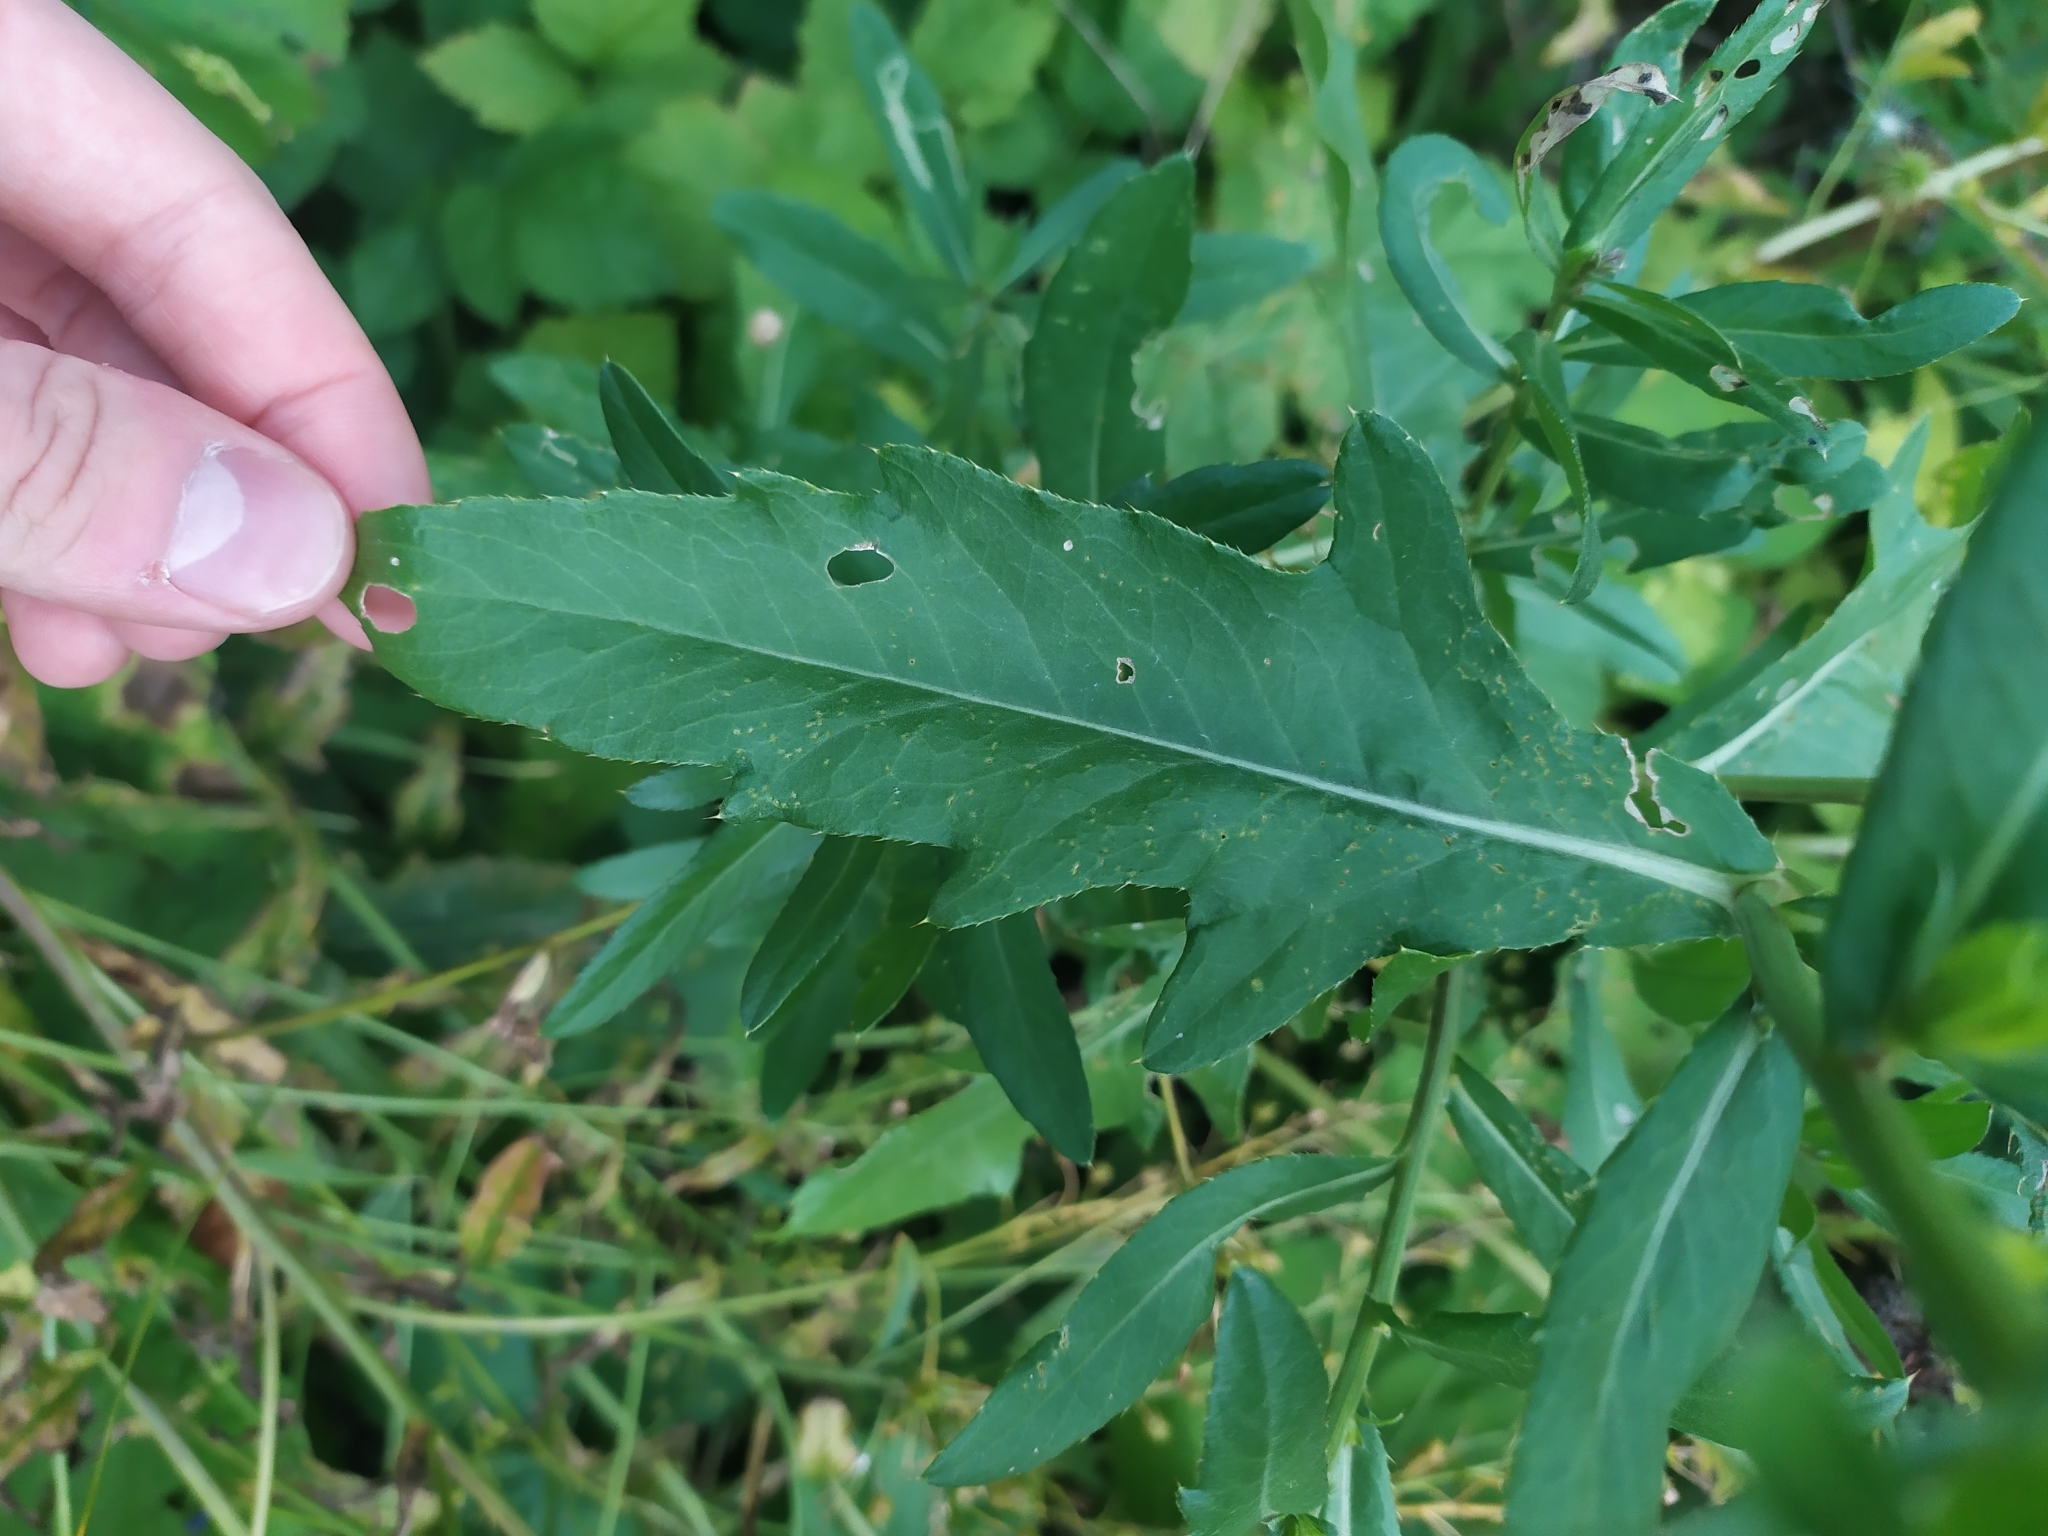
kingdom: Plantae
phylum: Tracheophyta
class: Magnoliopsida
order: Asterales
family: Asteraceae
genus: Cirsium
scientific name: Cirsium arvense
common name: Creeping thistle
